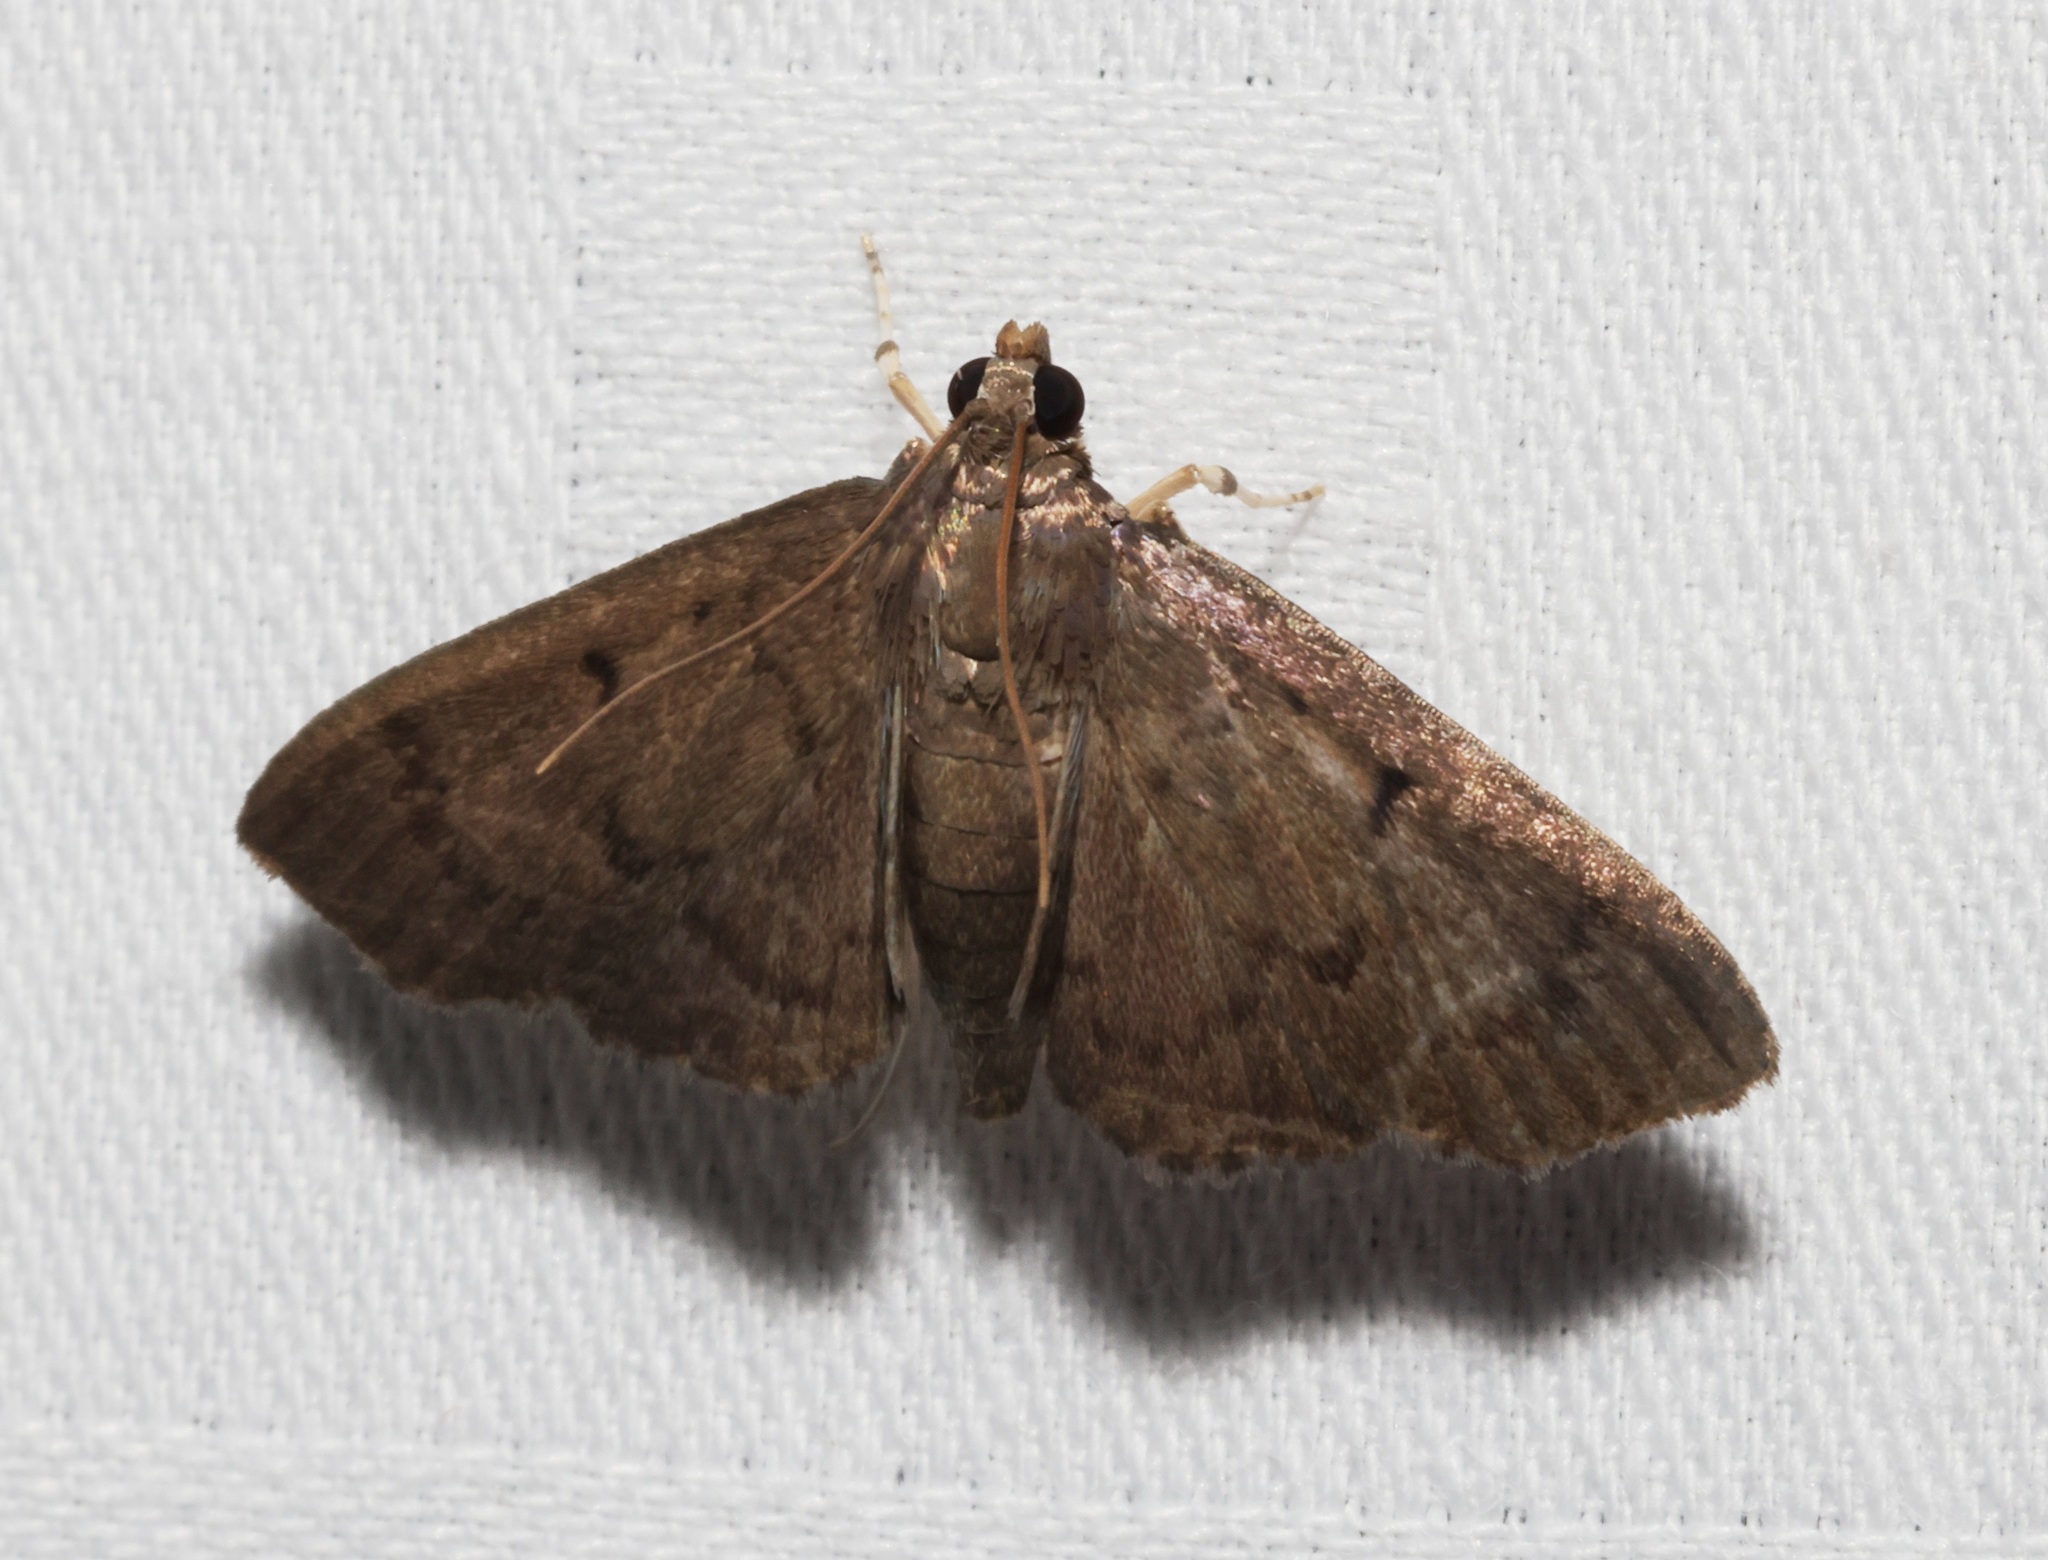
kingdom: Animalia
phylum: Arthropoda
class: Insecta
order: Lepidoptera
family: Crambidae
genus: Lamprosema
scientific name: Lamprosema tristrialis
